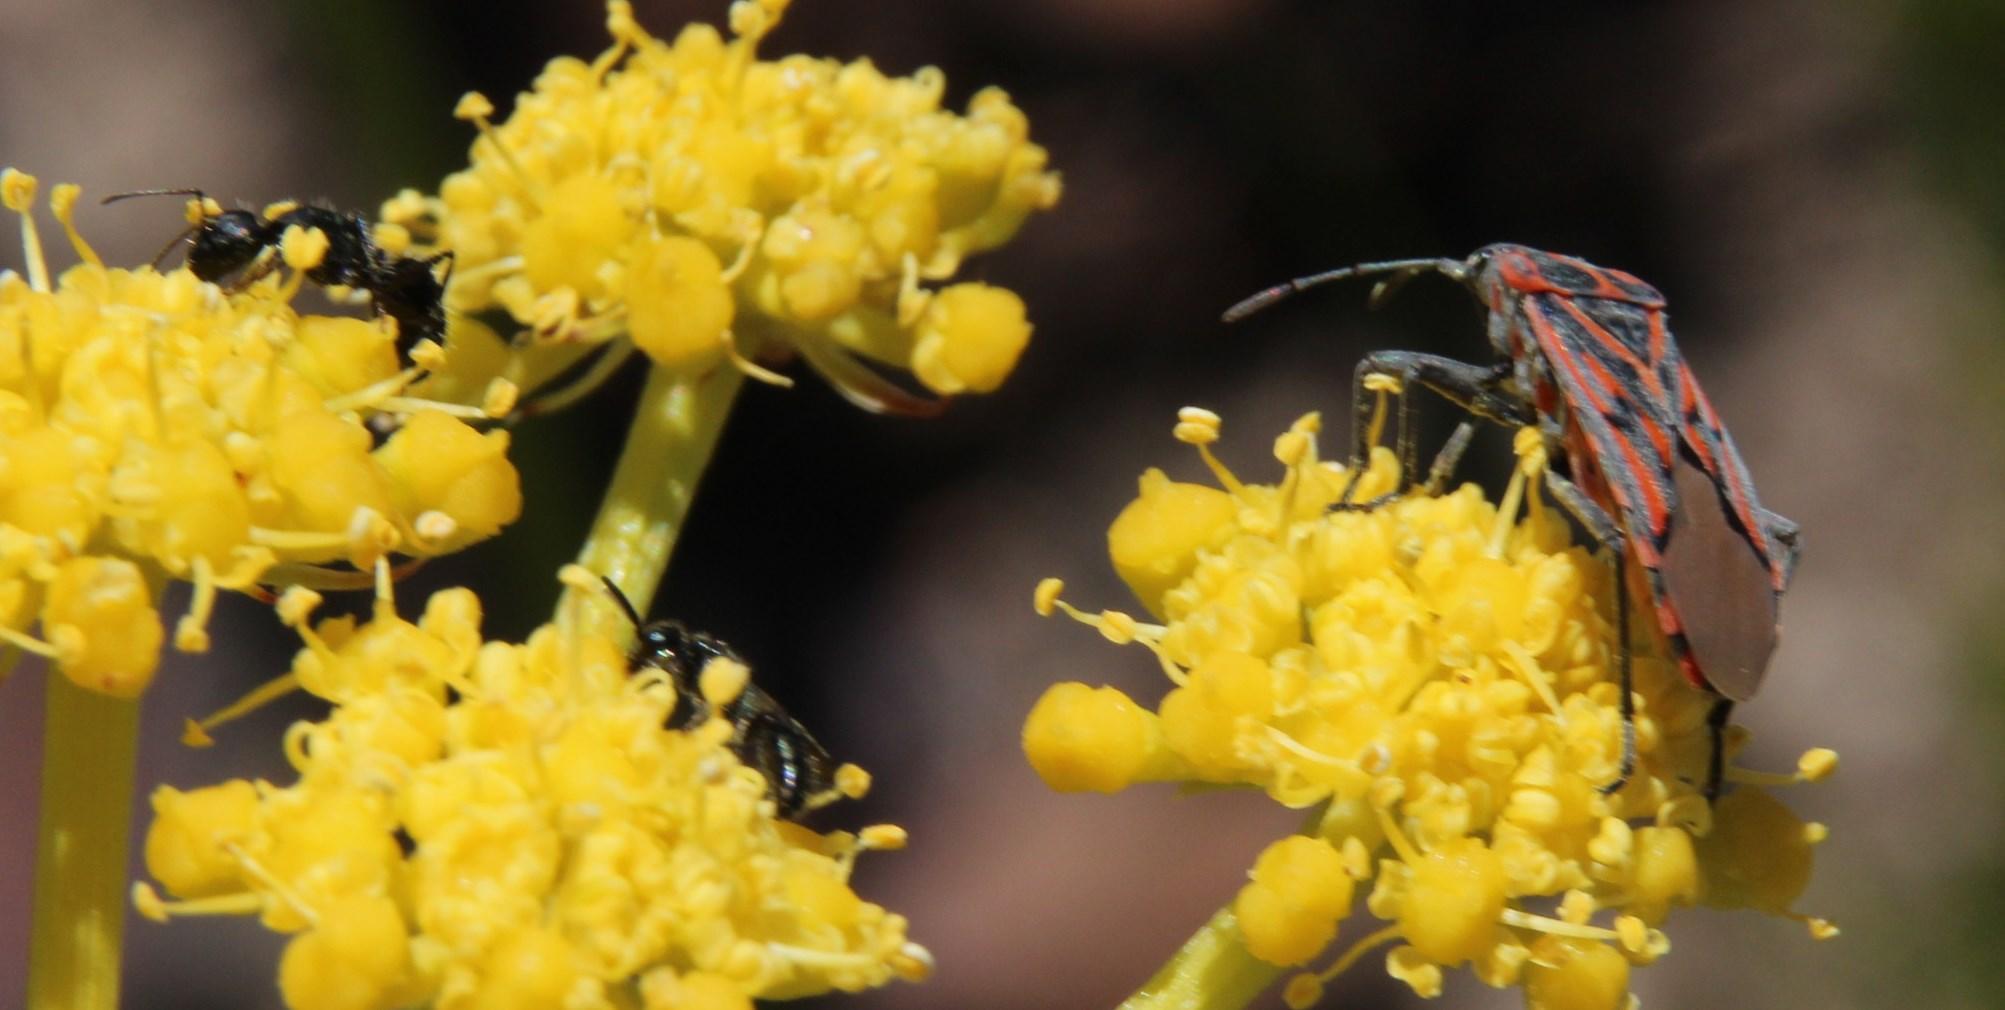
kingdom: Animalia
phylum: Arthropoda
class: Insecta
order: Hemiptera
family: Lygaeidae
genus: Spilostethus
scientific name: Spilostethus rivularis
